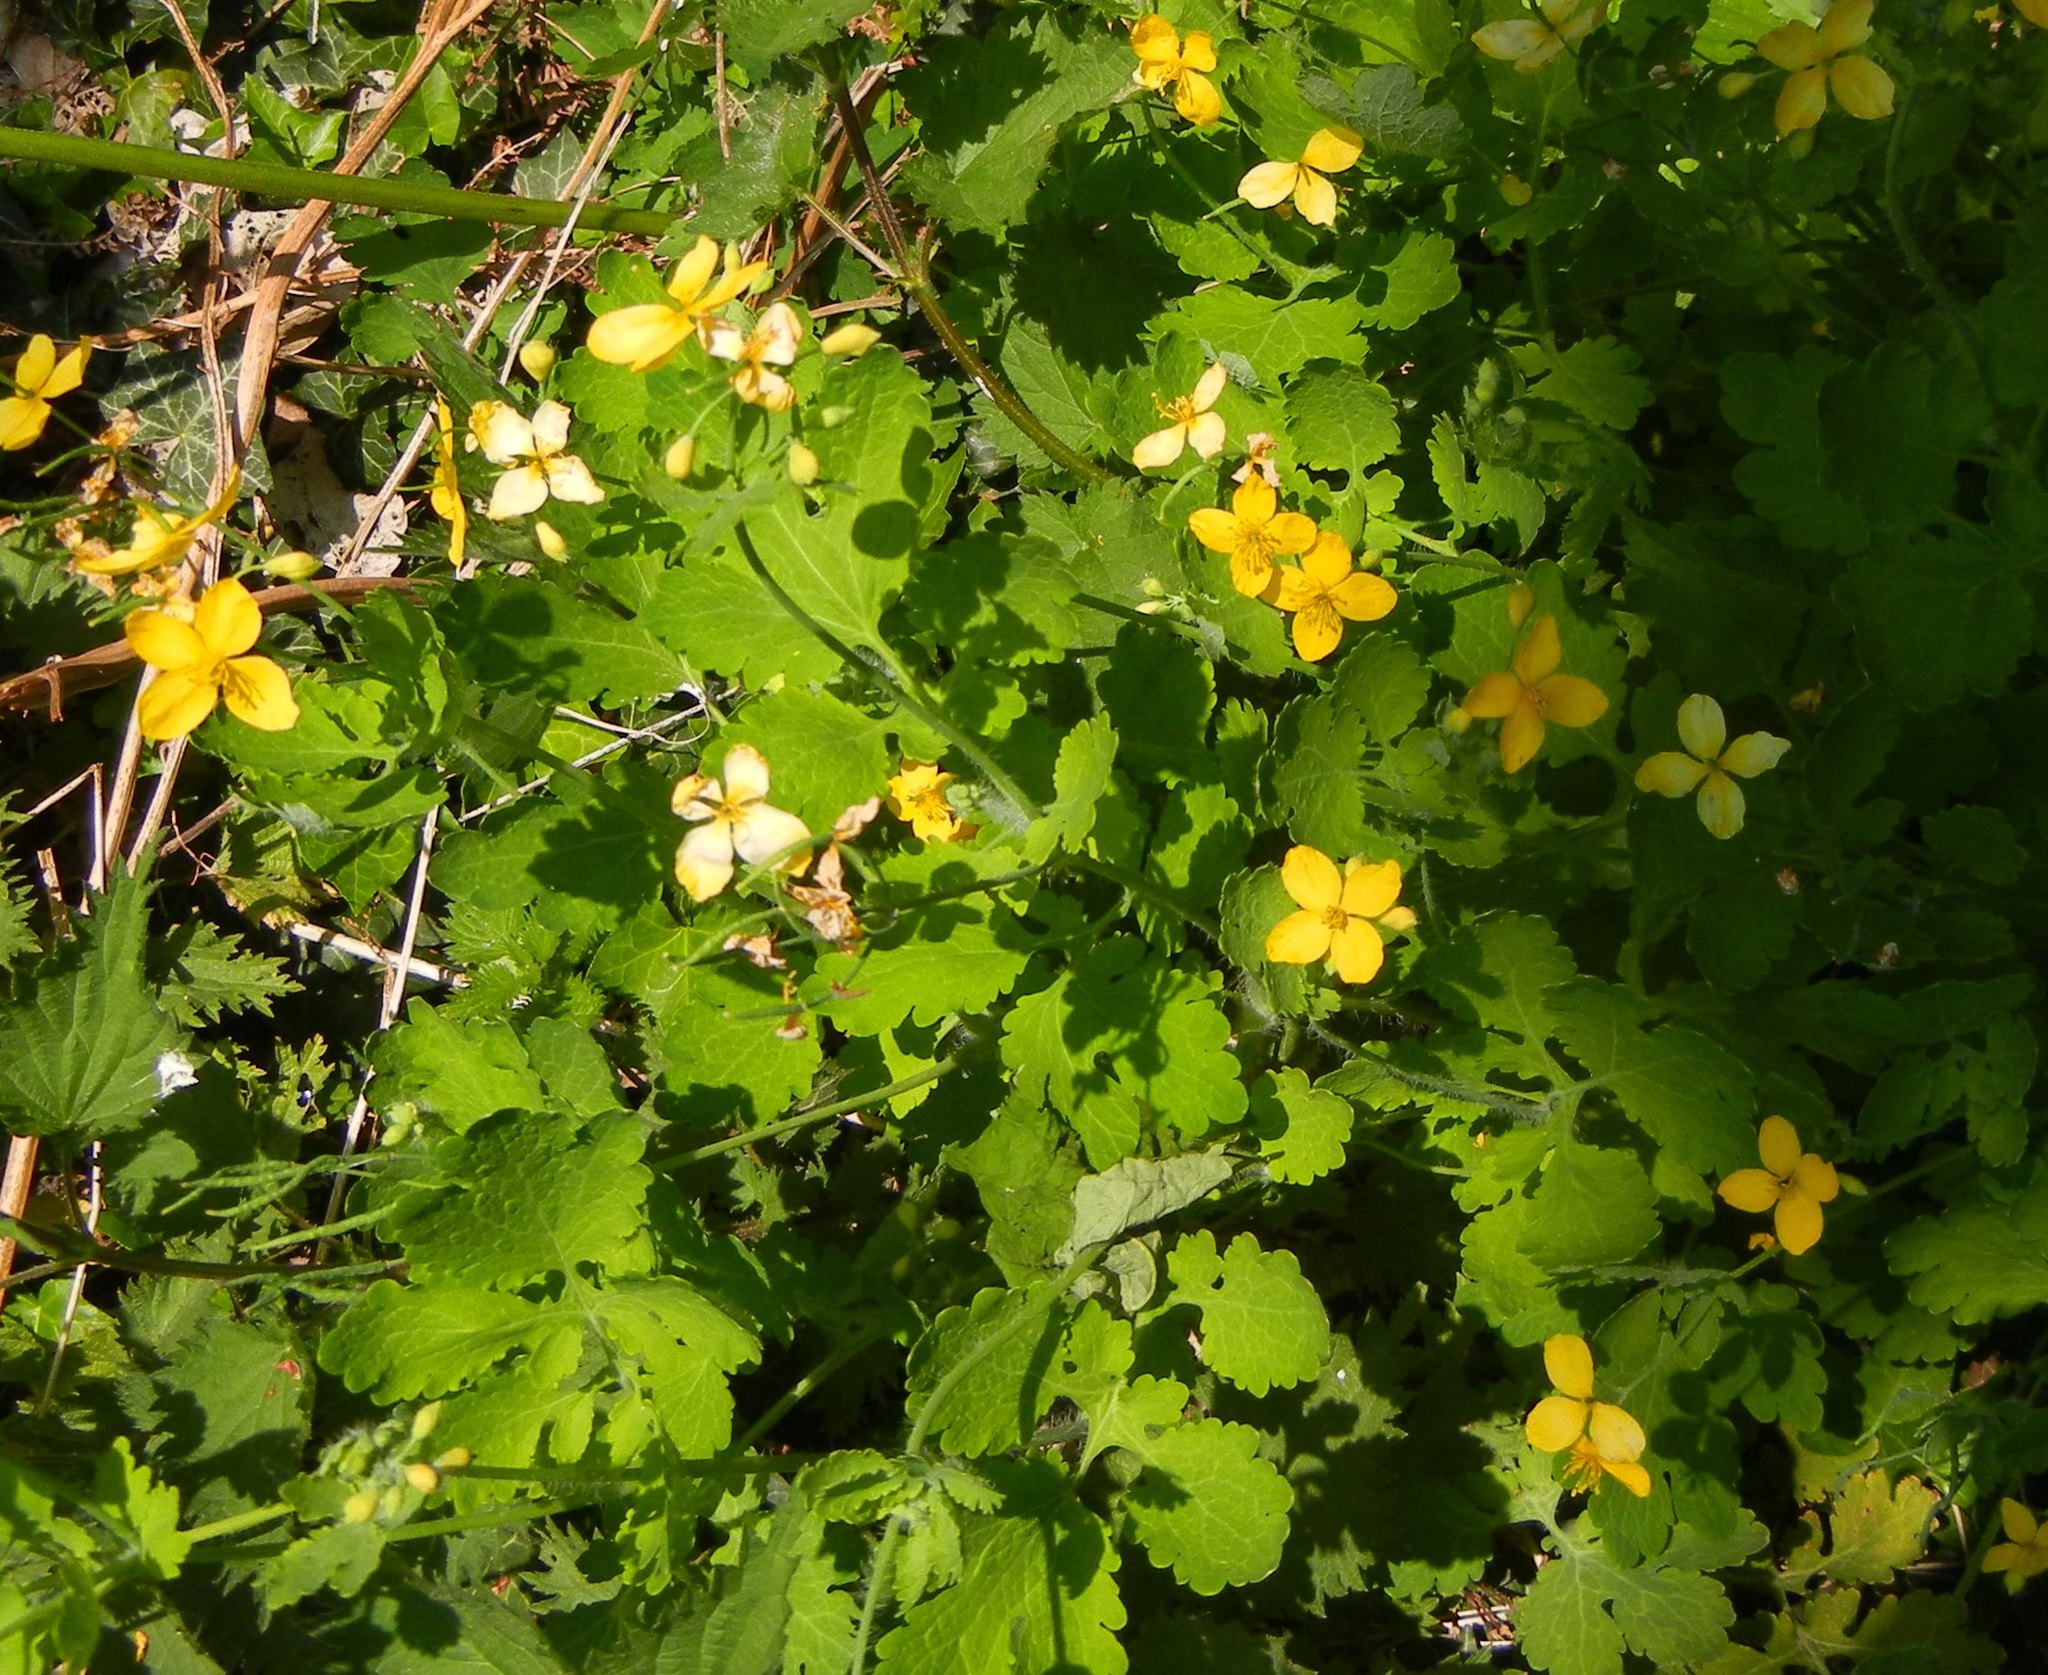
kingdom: Plantae
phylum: Tracheophyta
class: Magnoliopsida
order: Ranunculales
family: Papaveraceae
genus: Chelidonium
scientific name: Chelidonium majus
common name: Greater celandine
